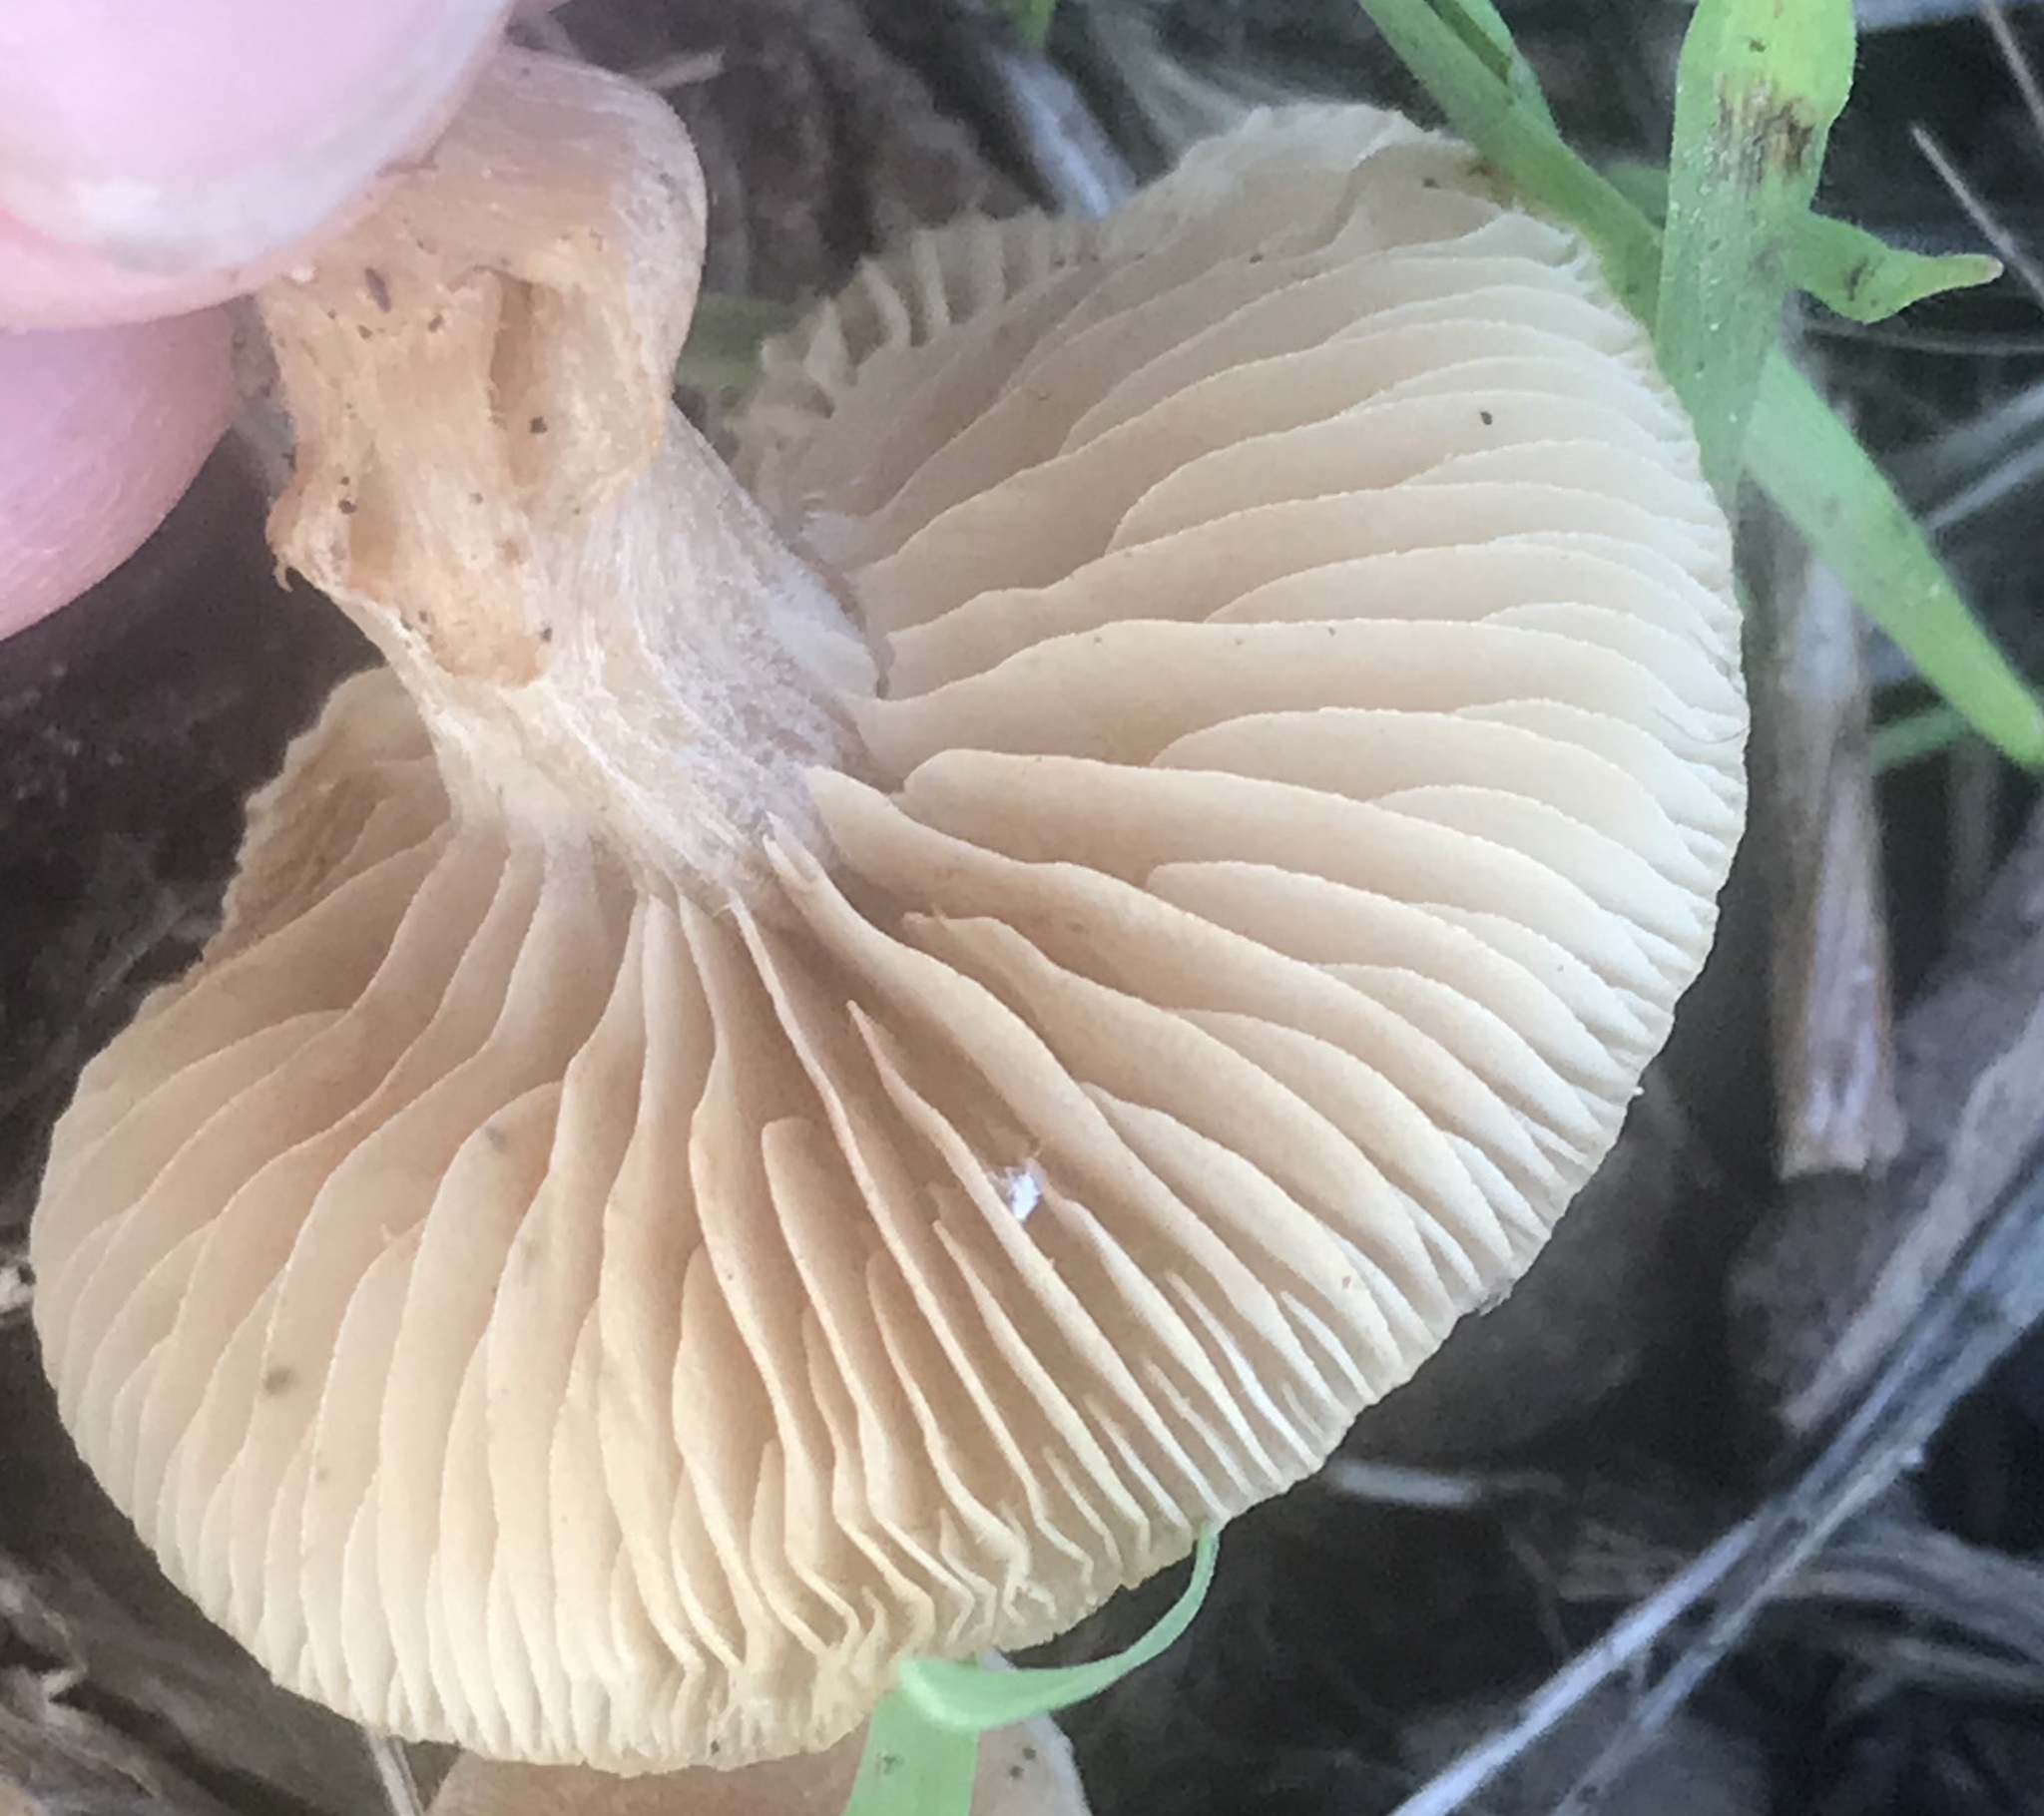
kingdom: Fungi
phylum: Basidiomycota
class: Agaricomycetes
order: Agaricales
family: Tubariaceae
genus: Tubaria
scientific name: Tubaria furfuracea
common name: Scurfy twiglet
